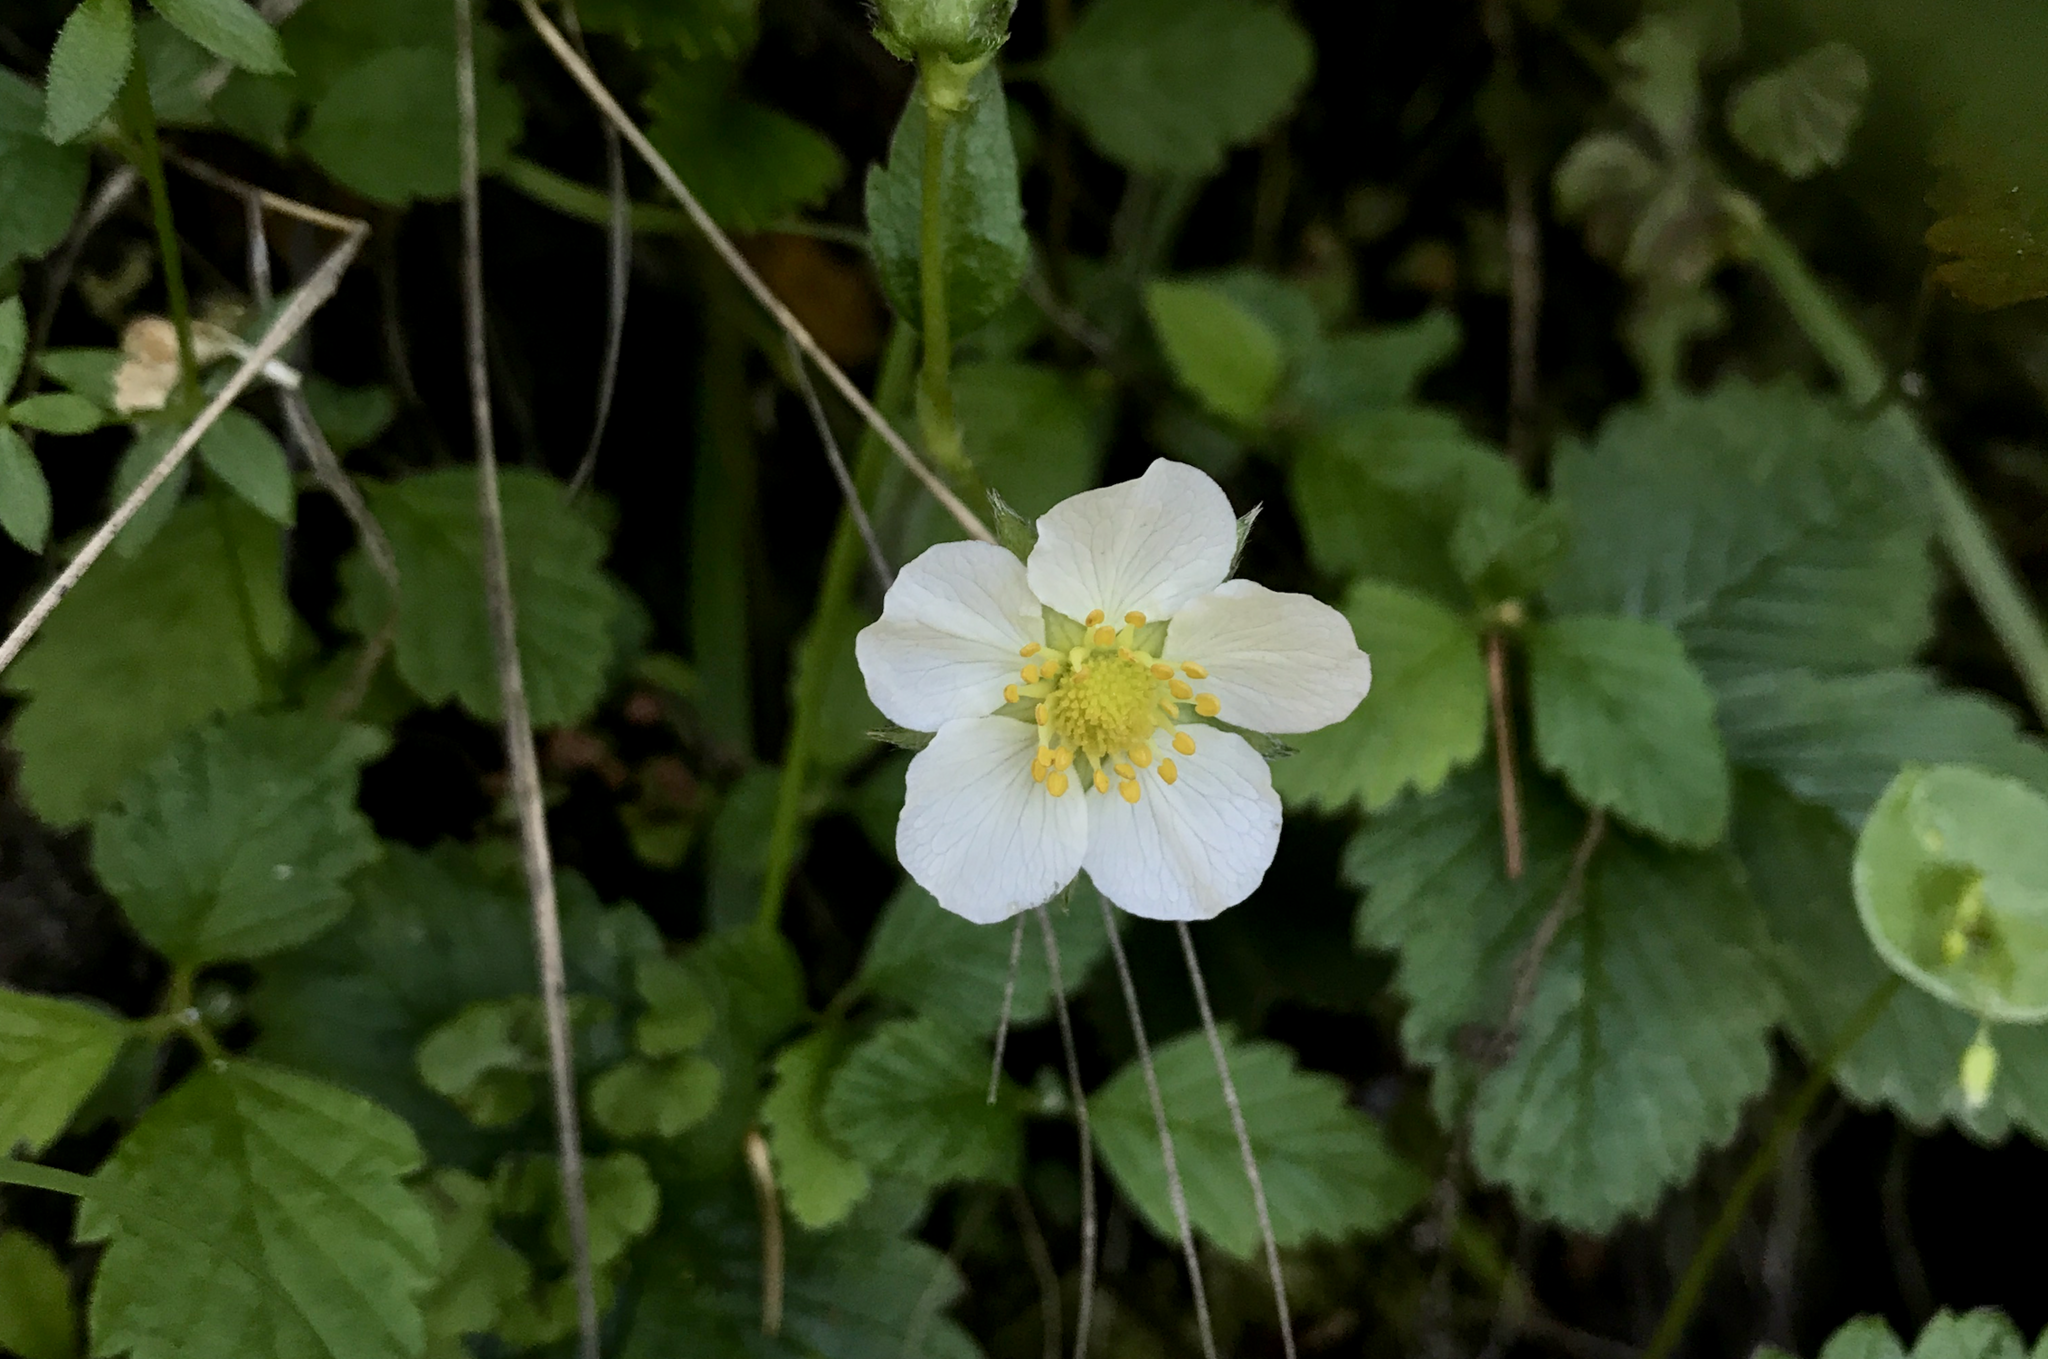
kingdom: Plantae
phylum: Tracheophyta
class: Magnoliopsida
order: Rosales
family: Rosaceae
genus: Fragaria
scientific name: Fragaria vesca
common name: Wild strawberry
